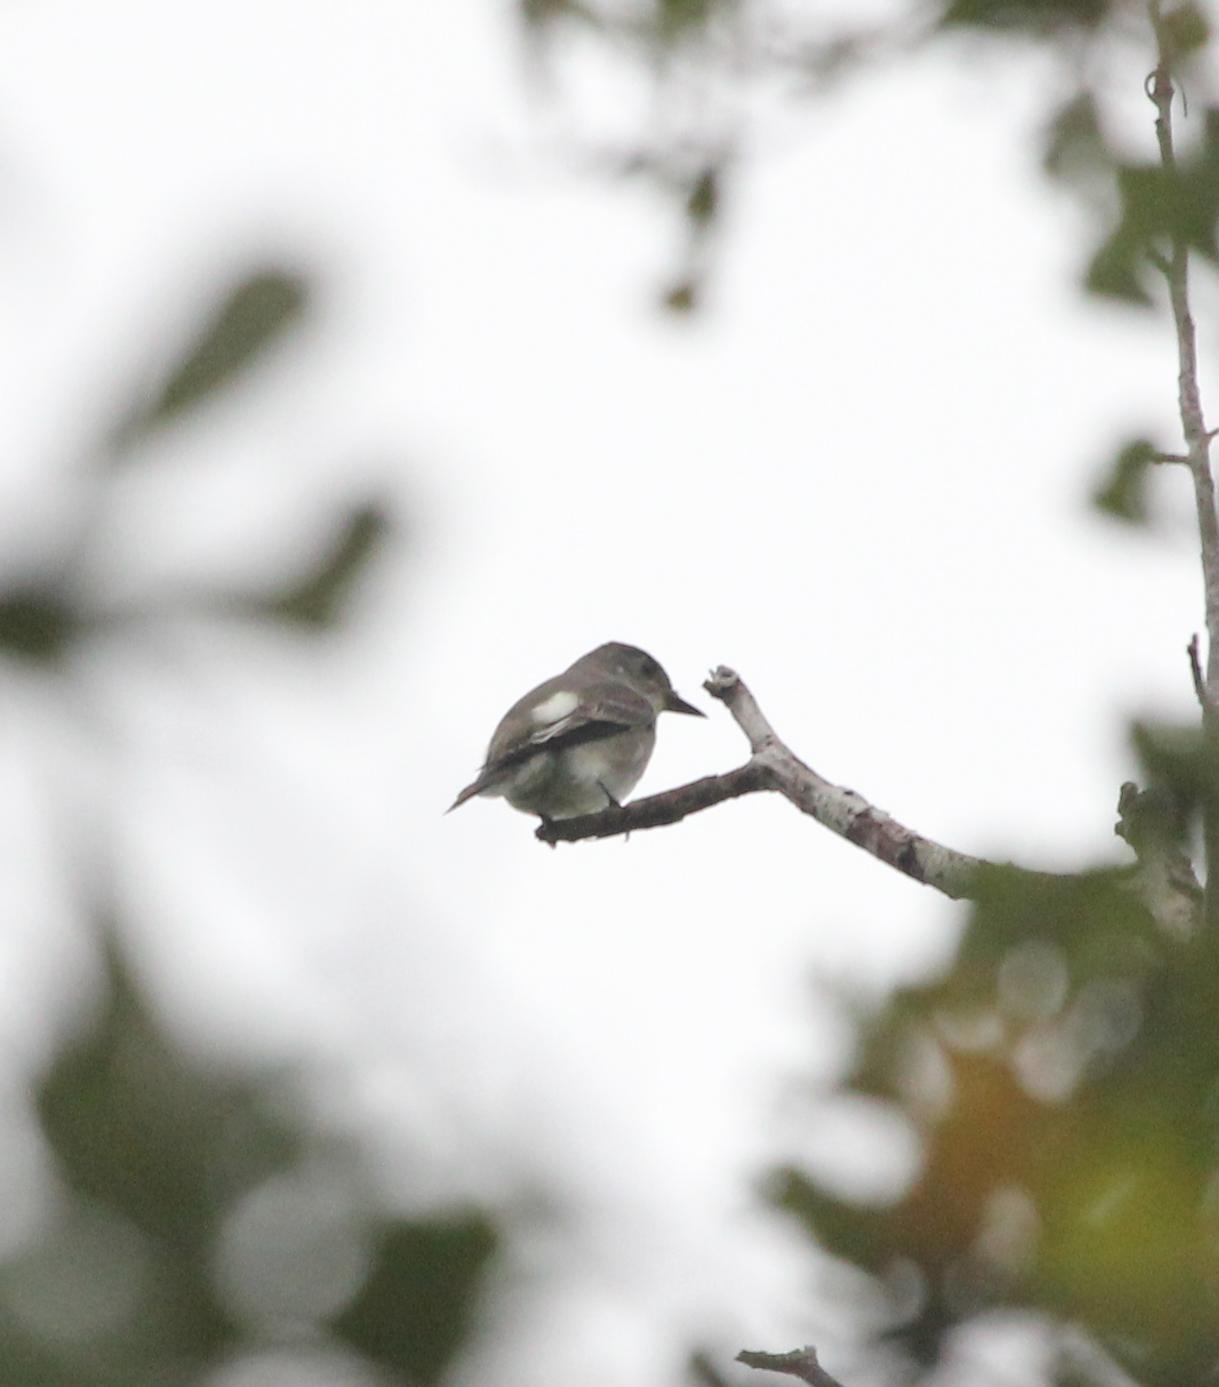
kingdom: Animalia
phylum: Chordata
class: Aves
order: Passeriformes
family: Tyrannidae
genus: Contopus
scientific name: Contopus cooperi
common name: Olive-sided flycatcher
